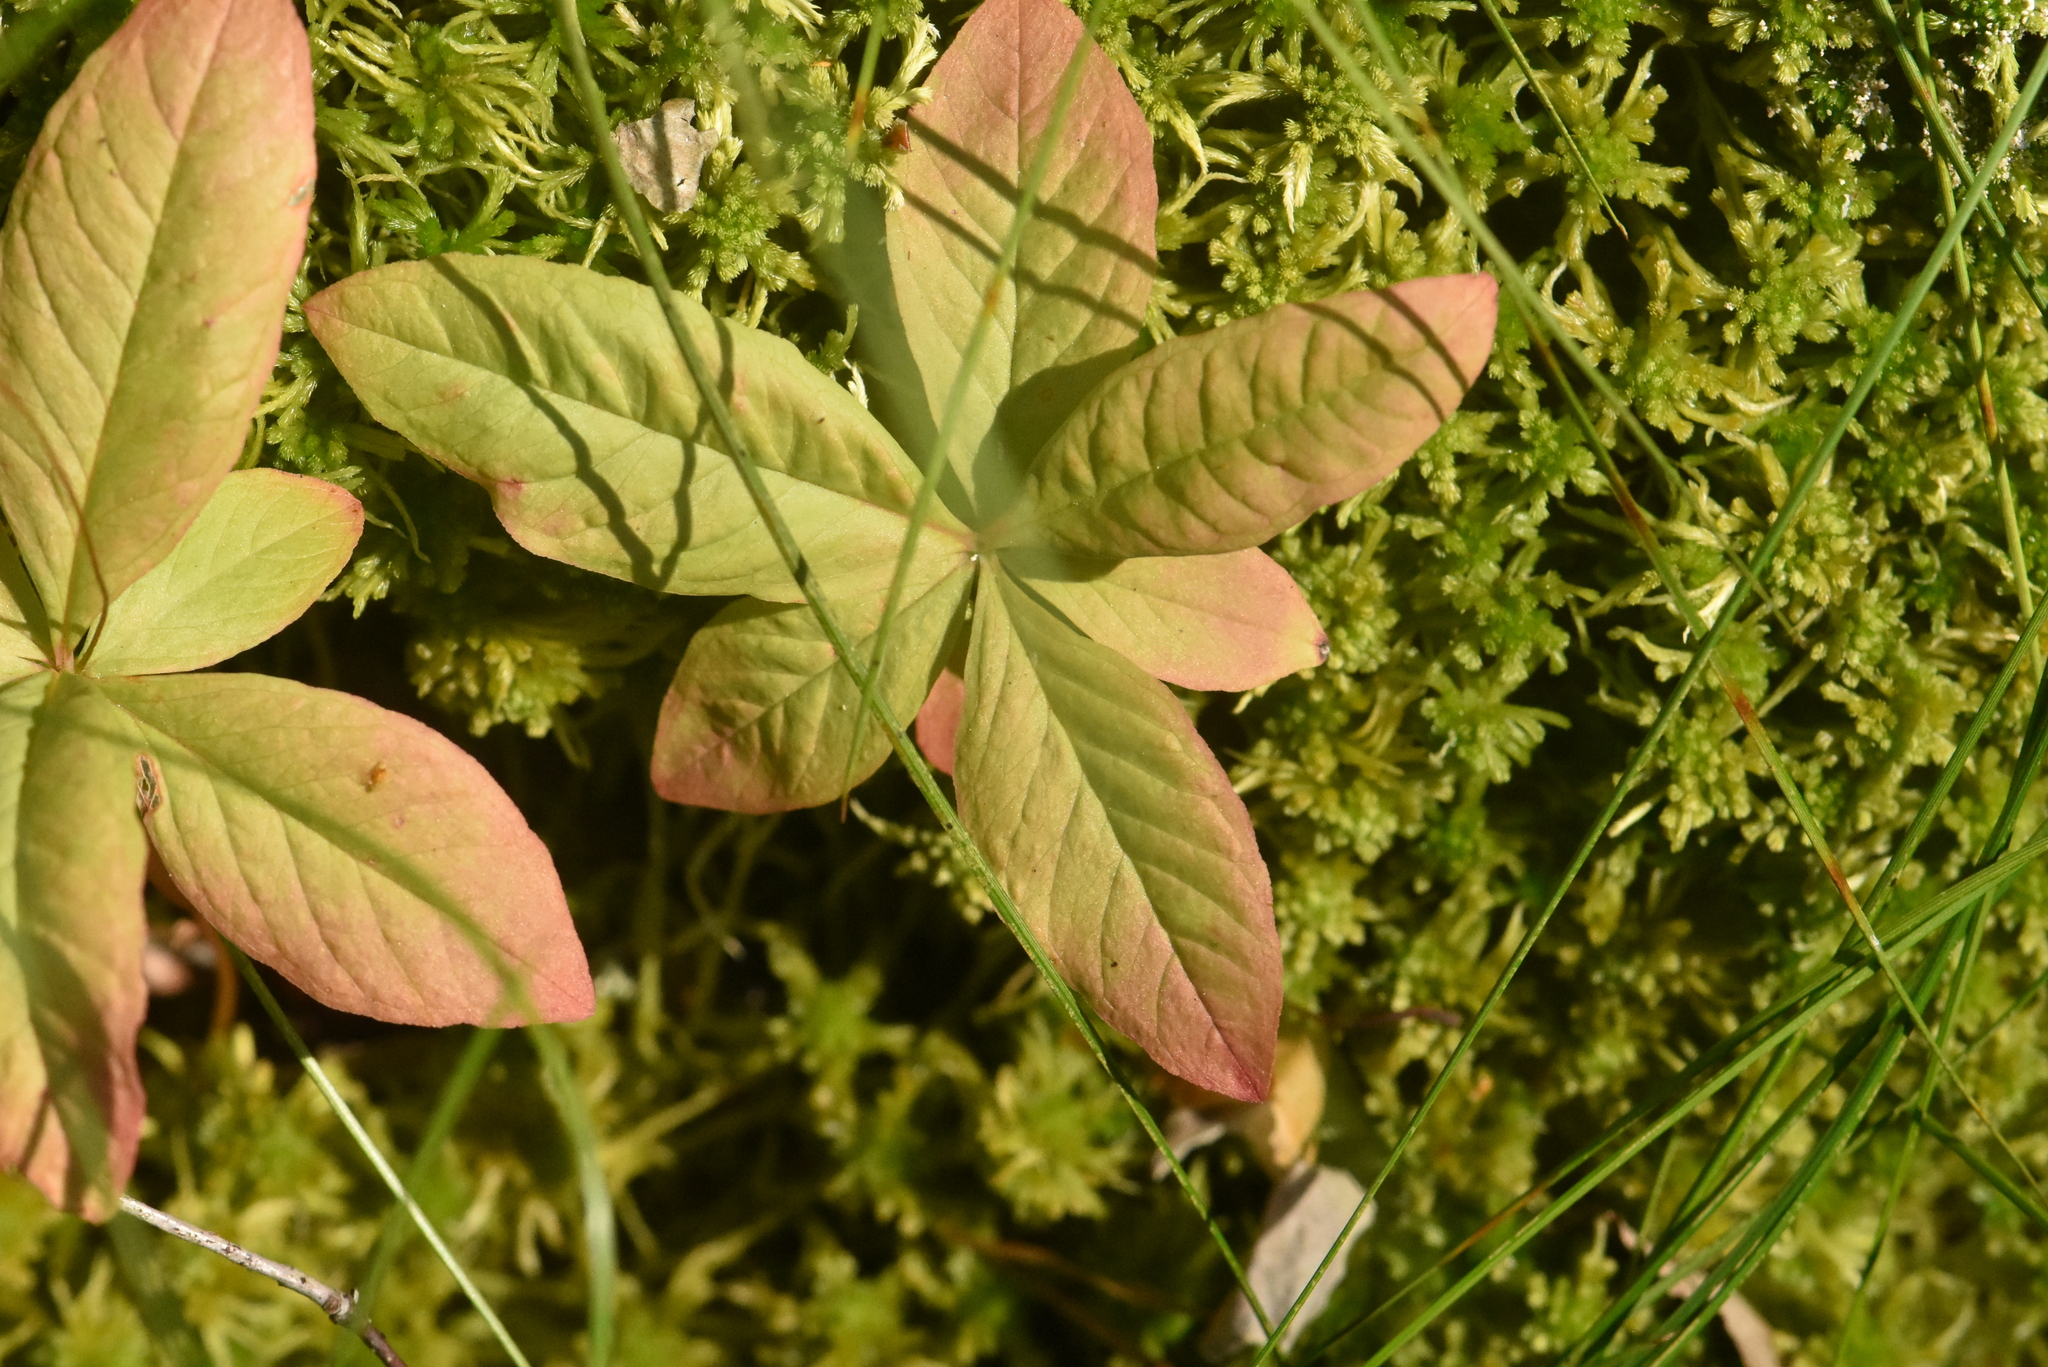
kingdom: Plantae
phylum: Tracheophyta
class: Magnoliopsida
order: Ericales
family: Primulaceae
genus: Lysimachia
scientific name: Lysimachia europaea
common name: Arctic starflower
